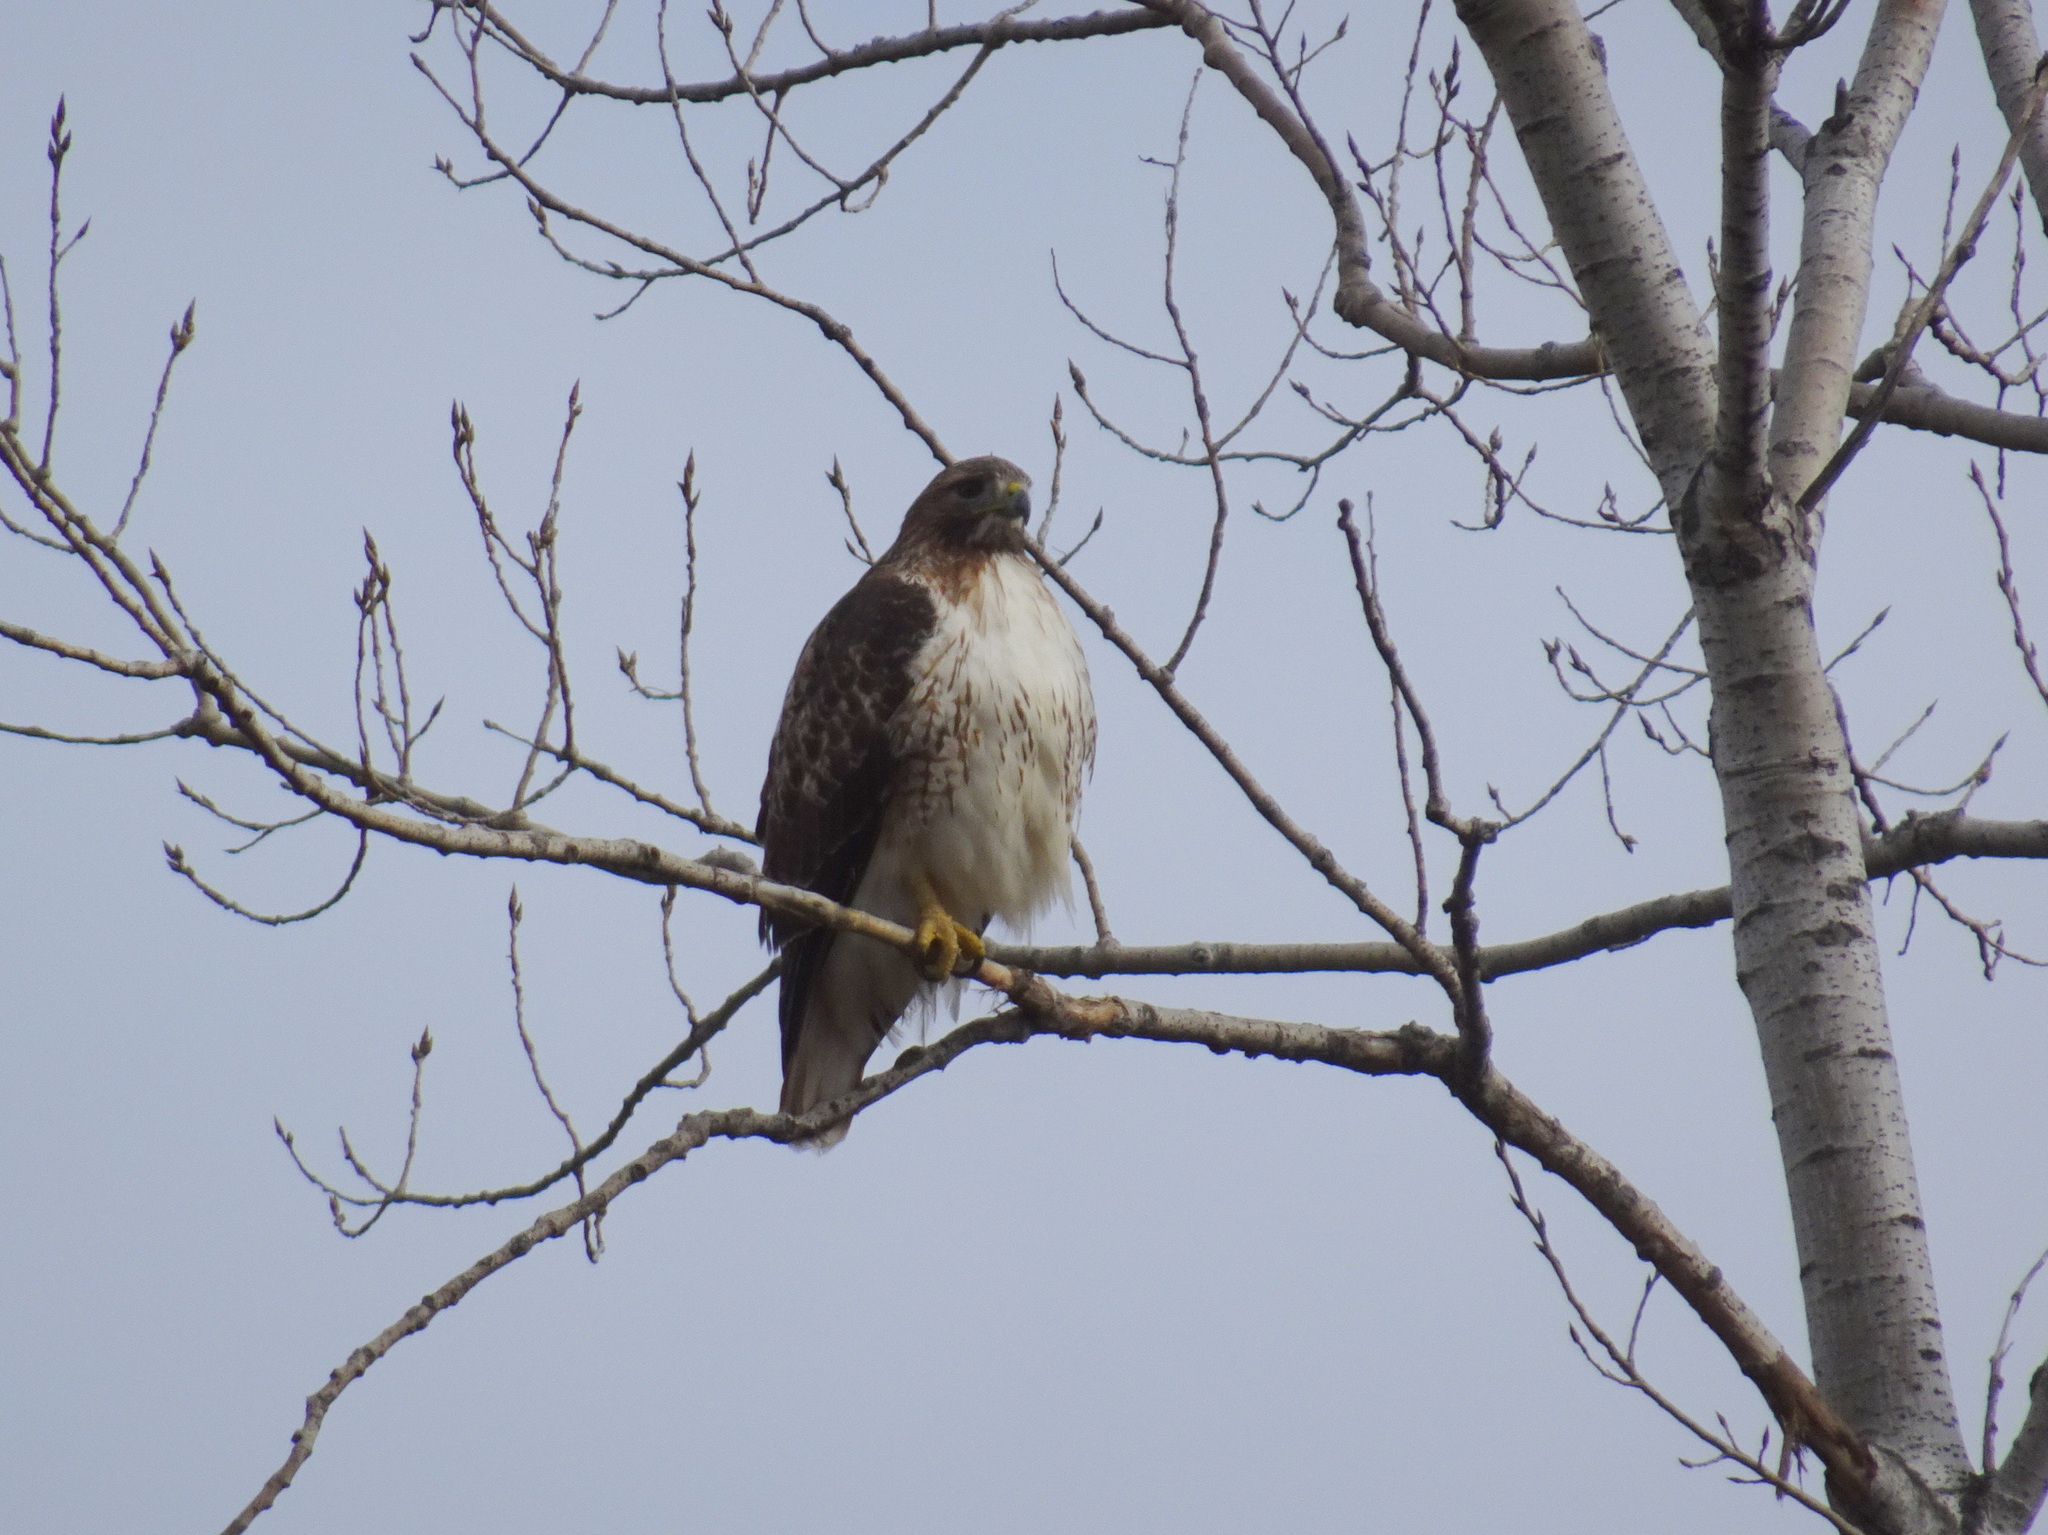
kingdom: Animalia
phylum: Chordata
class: Aves
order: Accipitriformes
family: Accipitridae
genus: Buteo
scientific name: Buteo jamaicensis
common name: Red-tailed hawk
